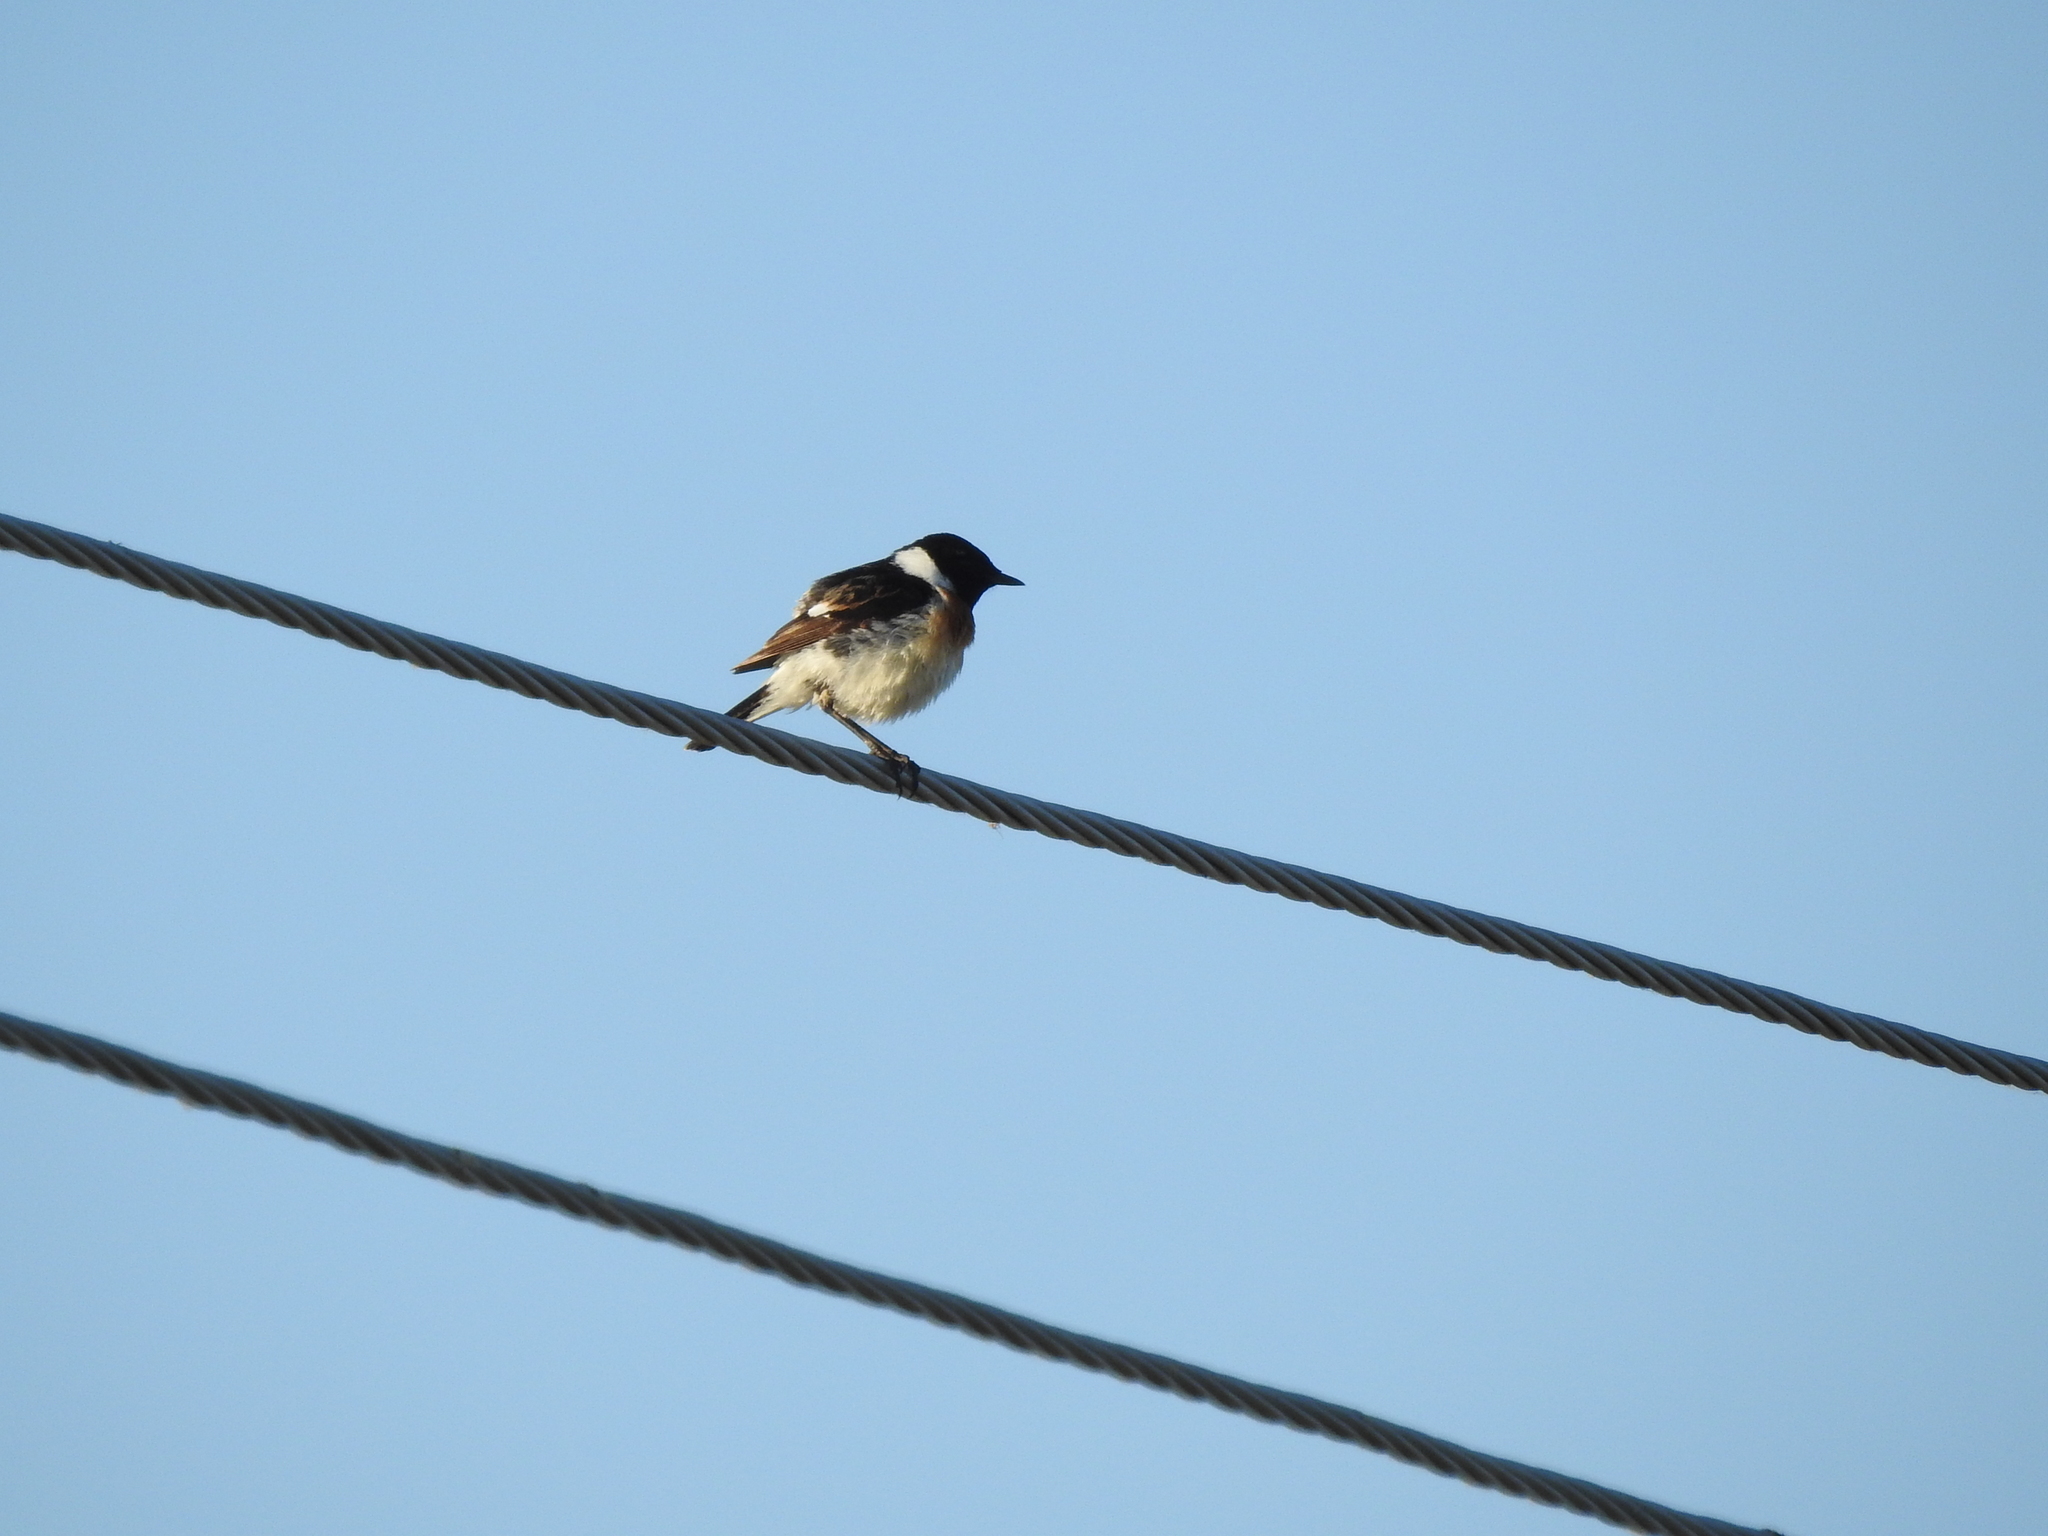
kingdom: Animalia
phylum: Chordata
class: Aves
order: Passeriformes
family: Muscicapidae
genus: Saxicola
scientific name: Saxicola maurus
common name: Siberian stonechat
